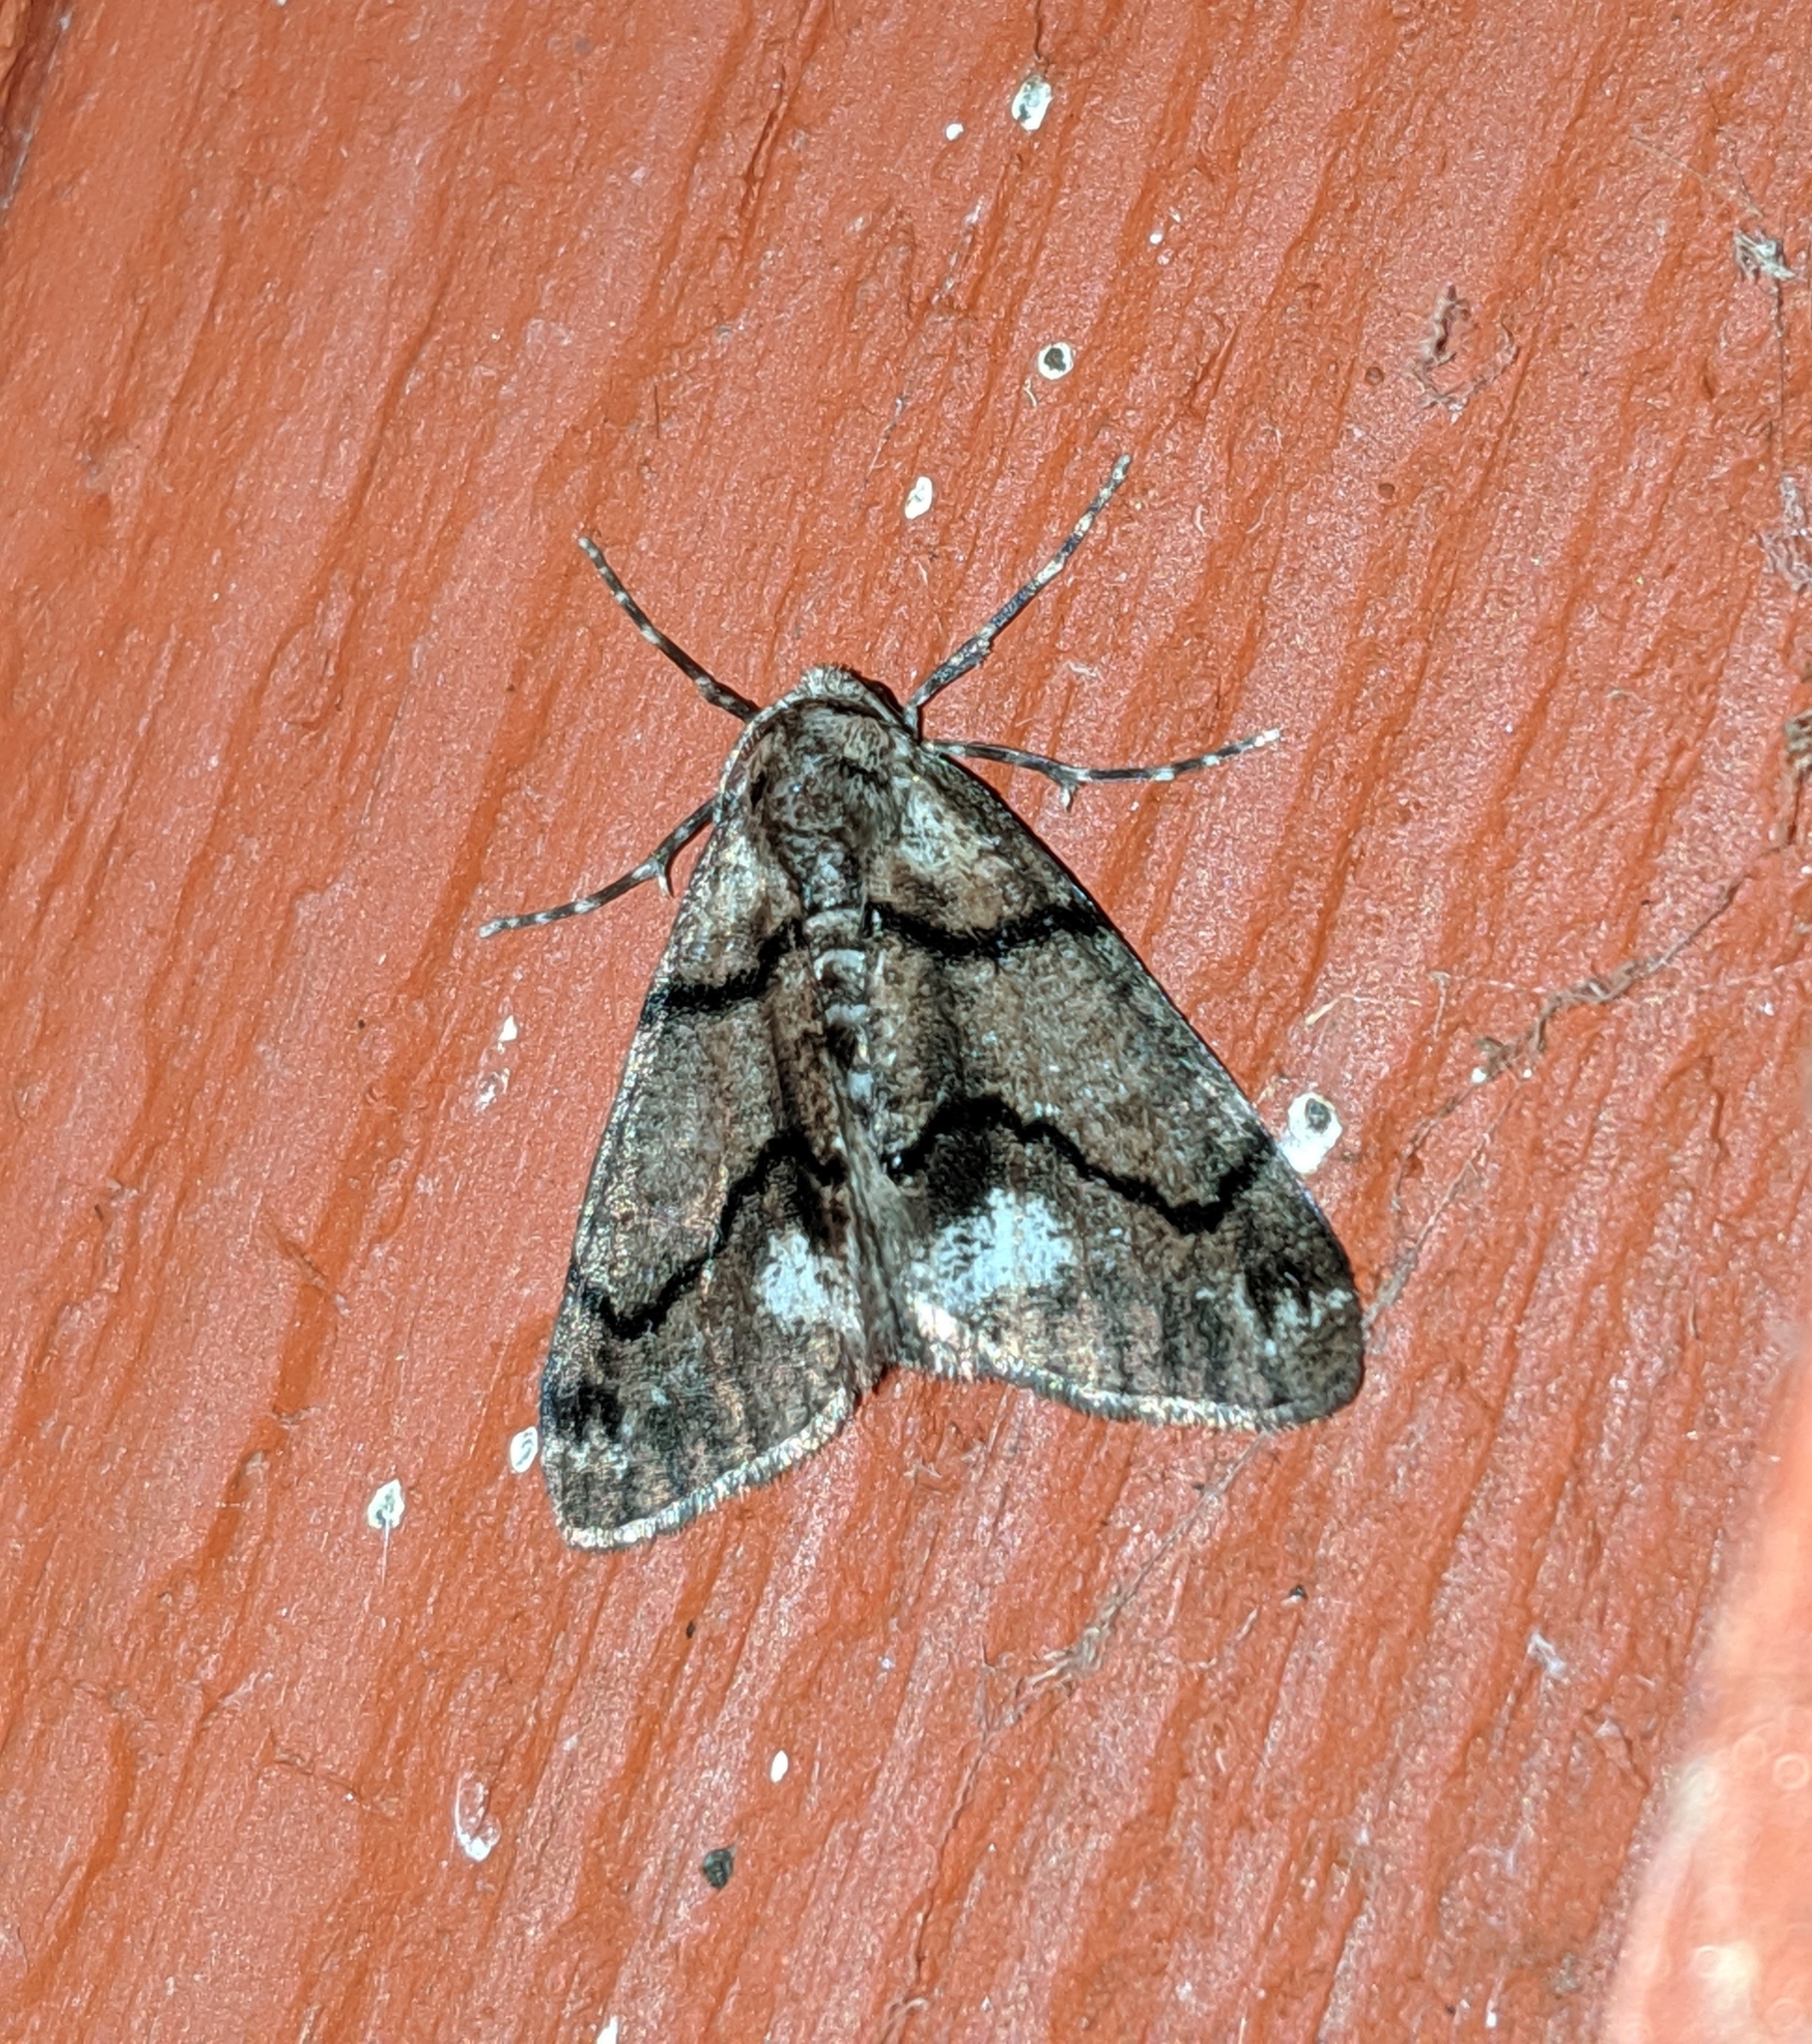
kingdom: Animalia
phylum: Arthropoda
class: Insecta
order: Lepidoptera
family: Geometridae
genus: Gabriola
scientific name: Gabriola dyari
